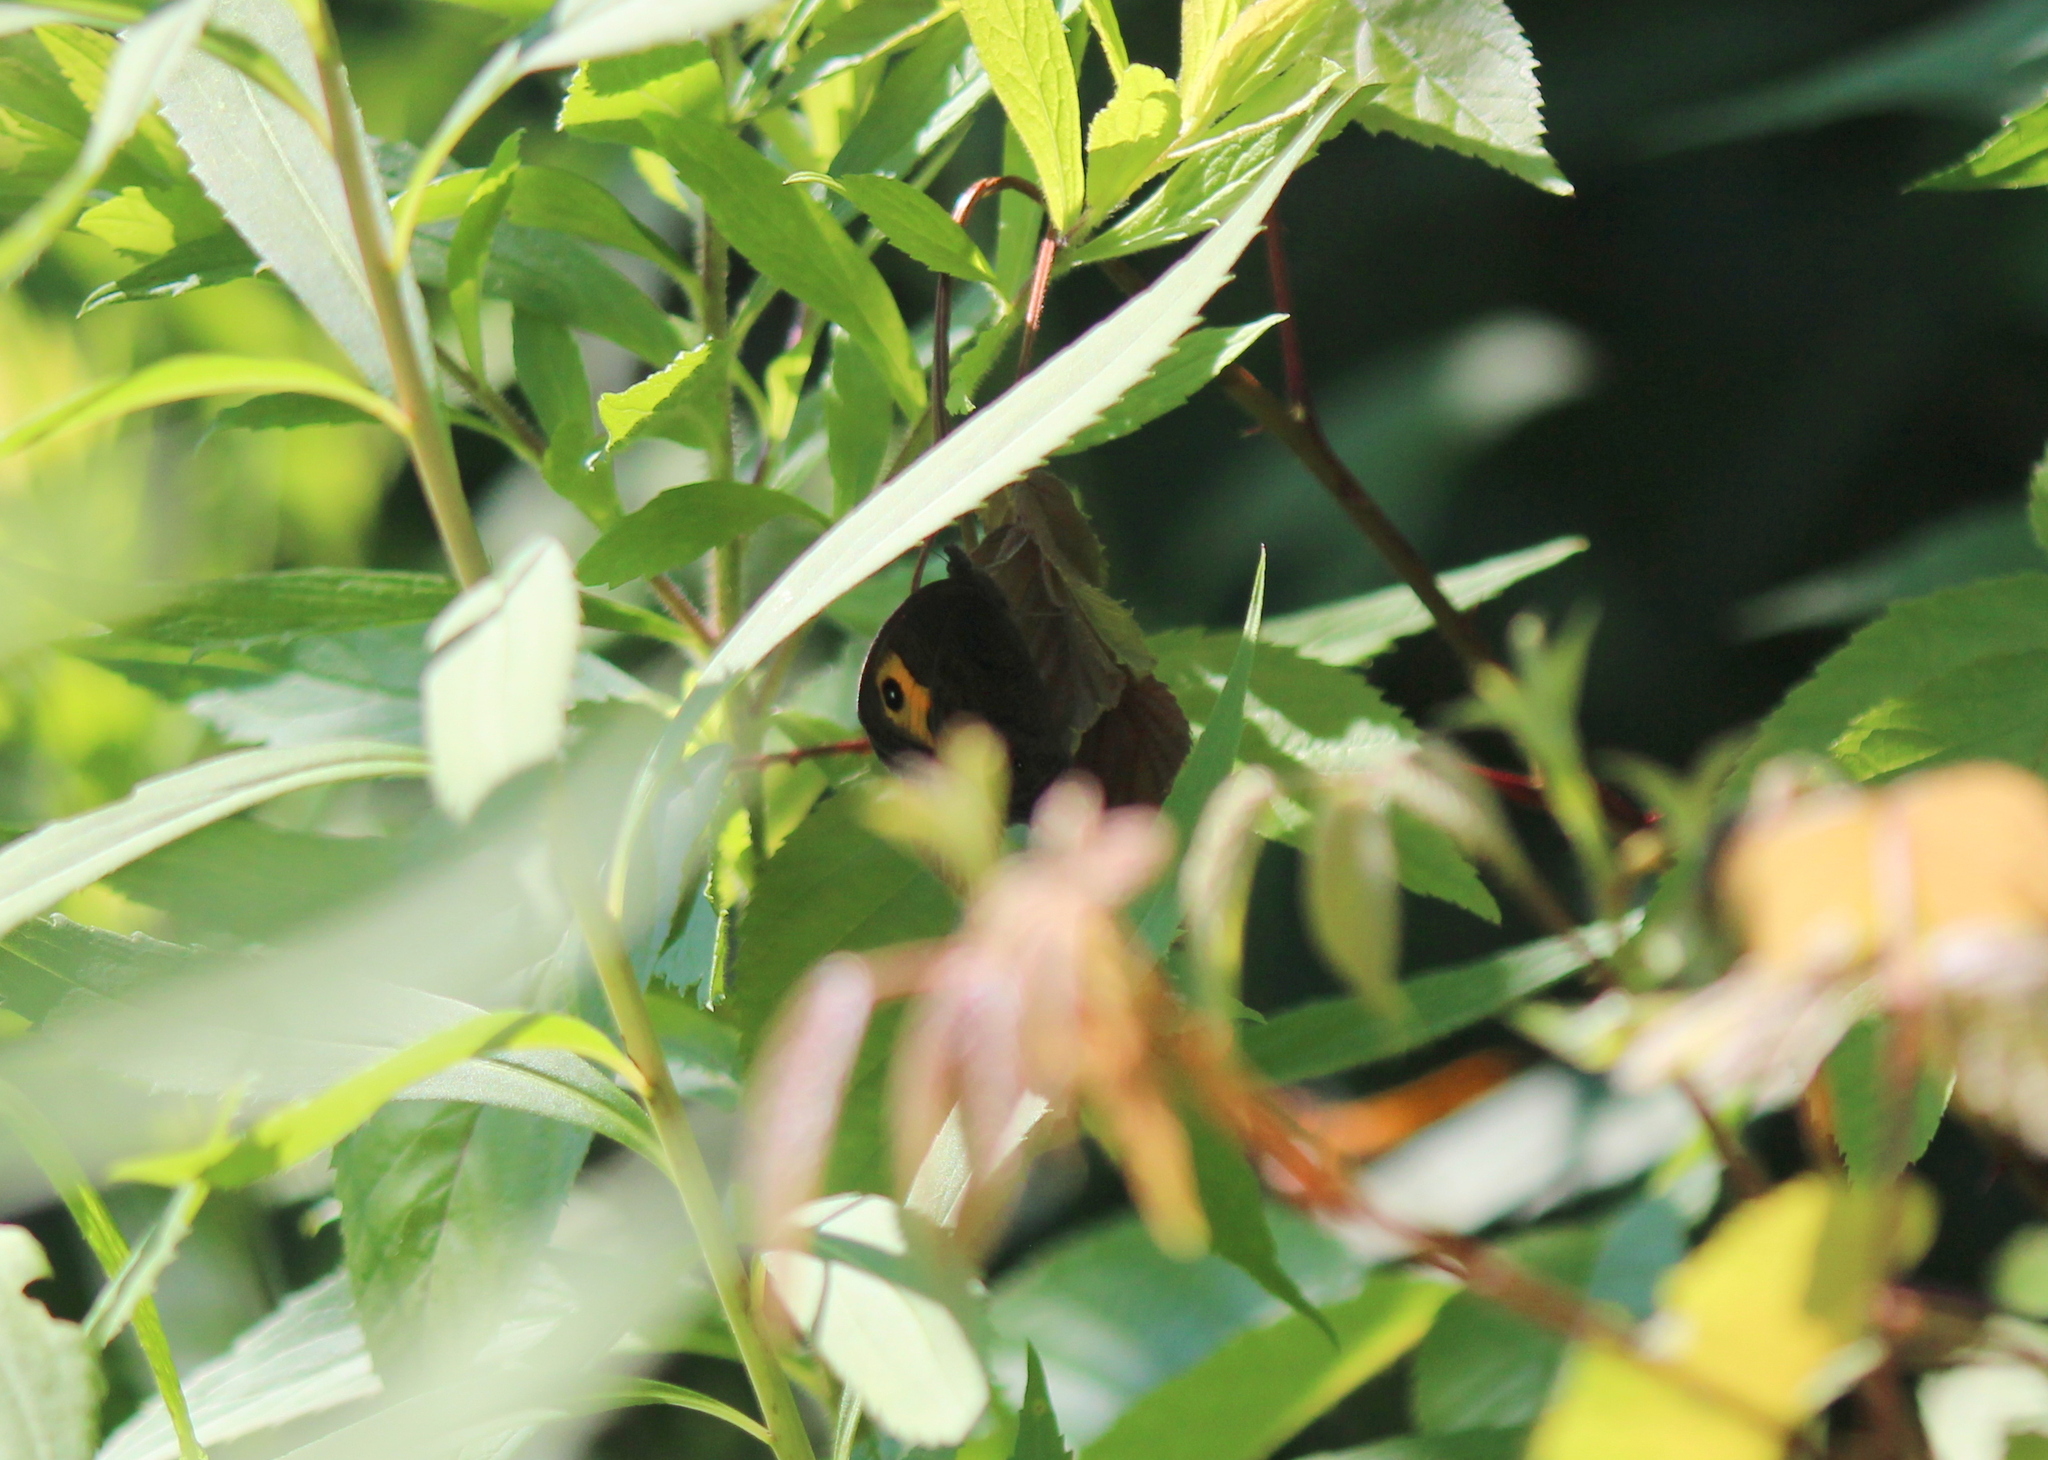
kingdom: Animalia
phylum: Arthropoda
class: Insecta
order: Lepidoptera
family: Nymphalidae
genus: Cercyonis
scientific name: Cercyonis pegala
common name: Common wood-nymph
